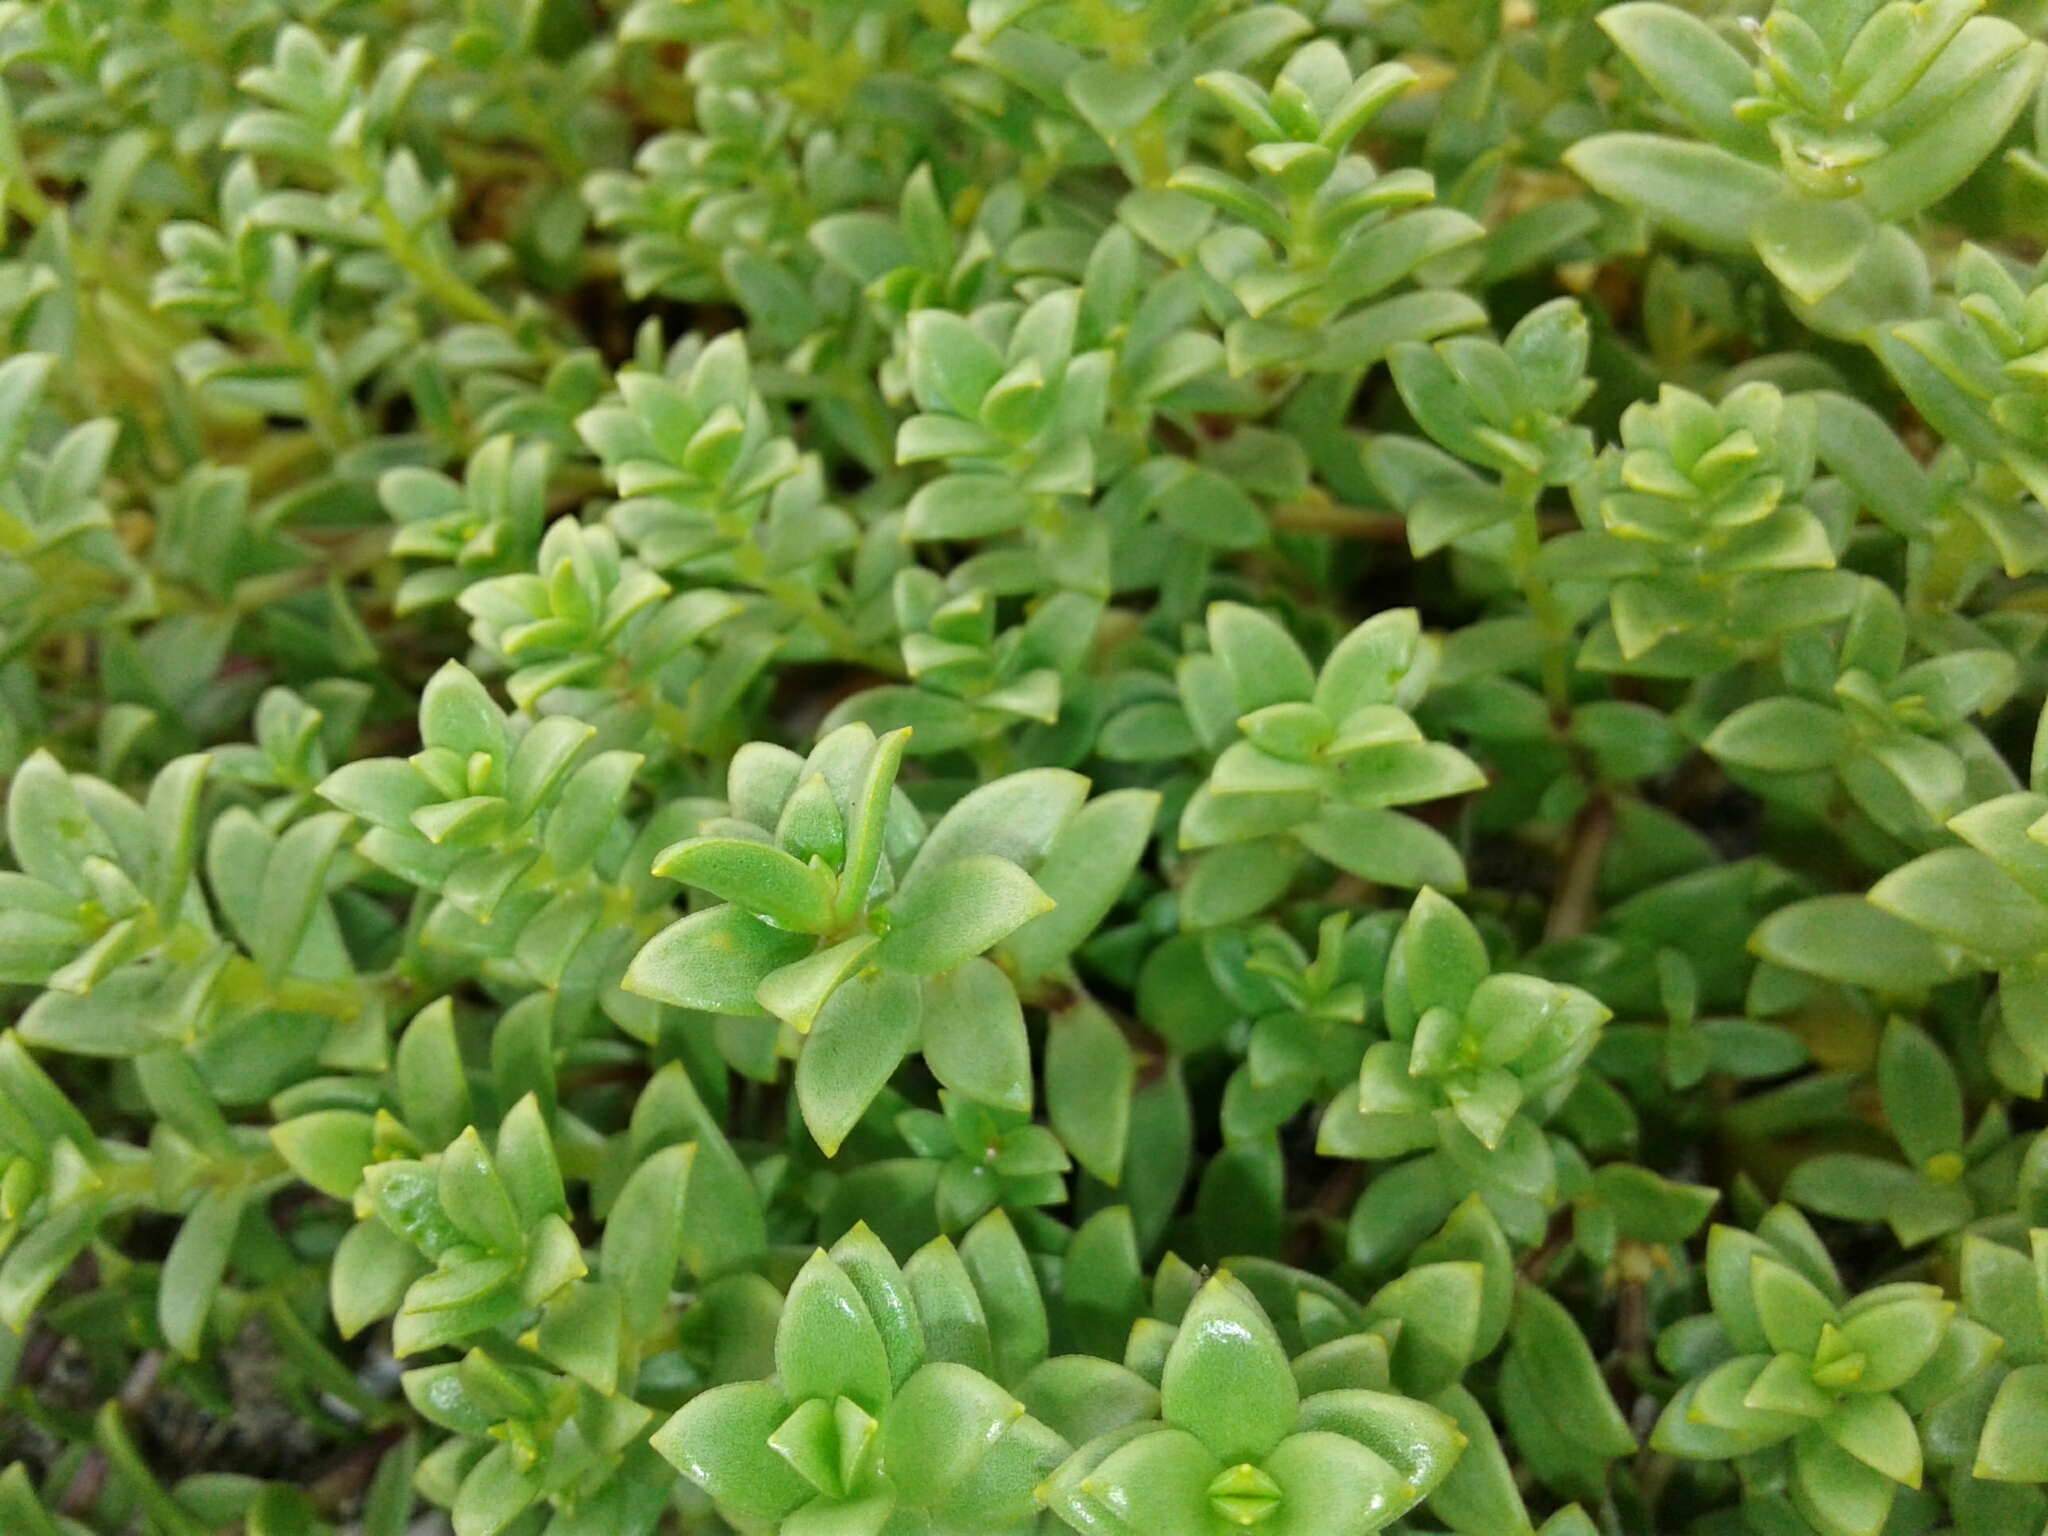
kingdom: Plantae
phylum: Tracheophyta
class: Magnoliopsida
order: Caryophyllales
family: Caryophyllaceae
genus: Honckenya
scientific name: Honckenya peploides
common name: Sea sandwort
